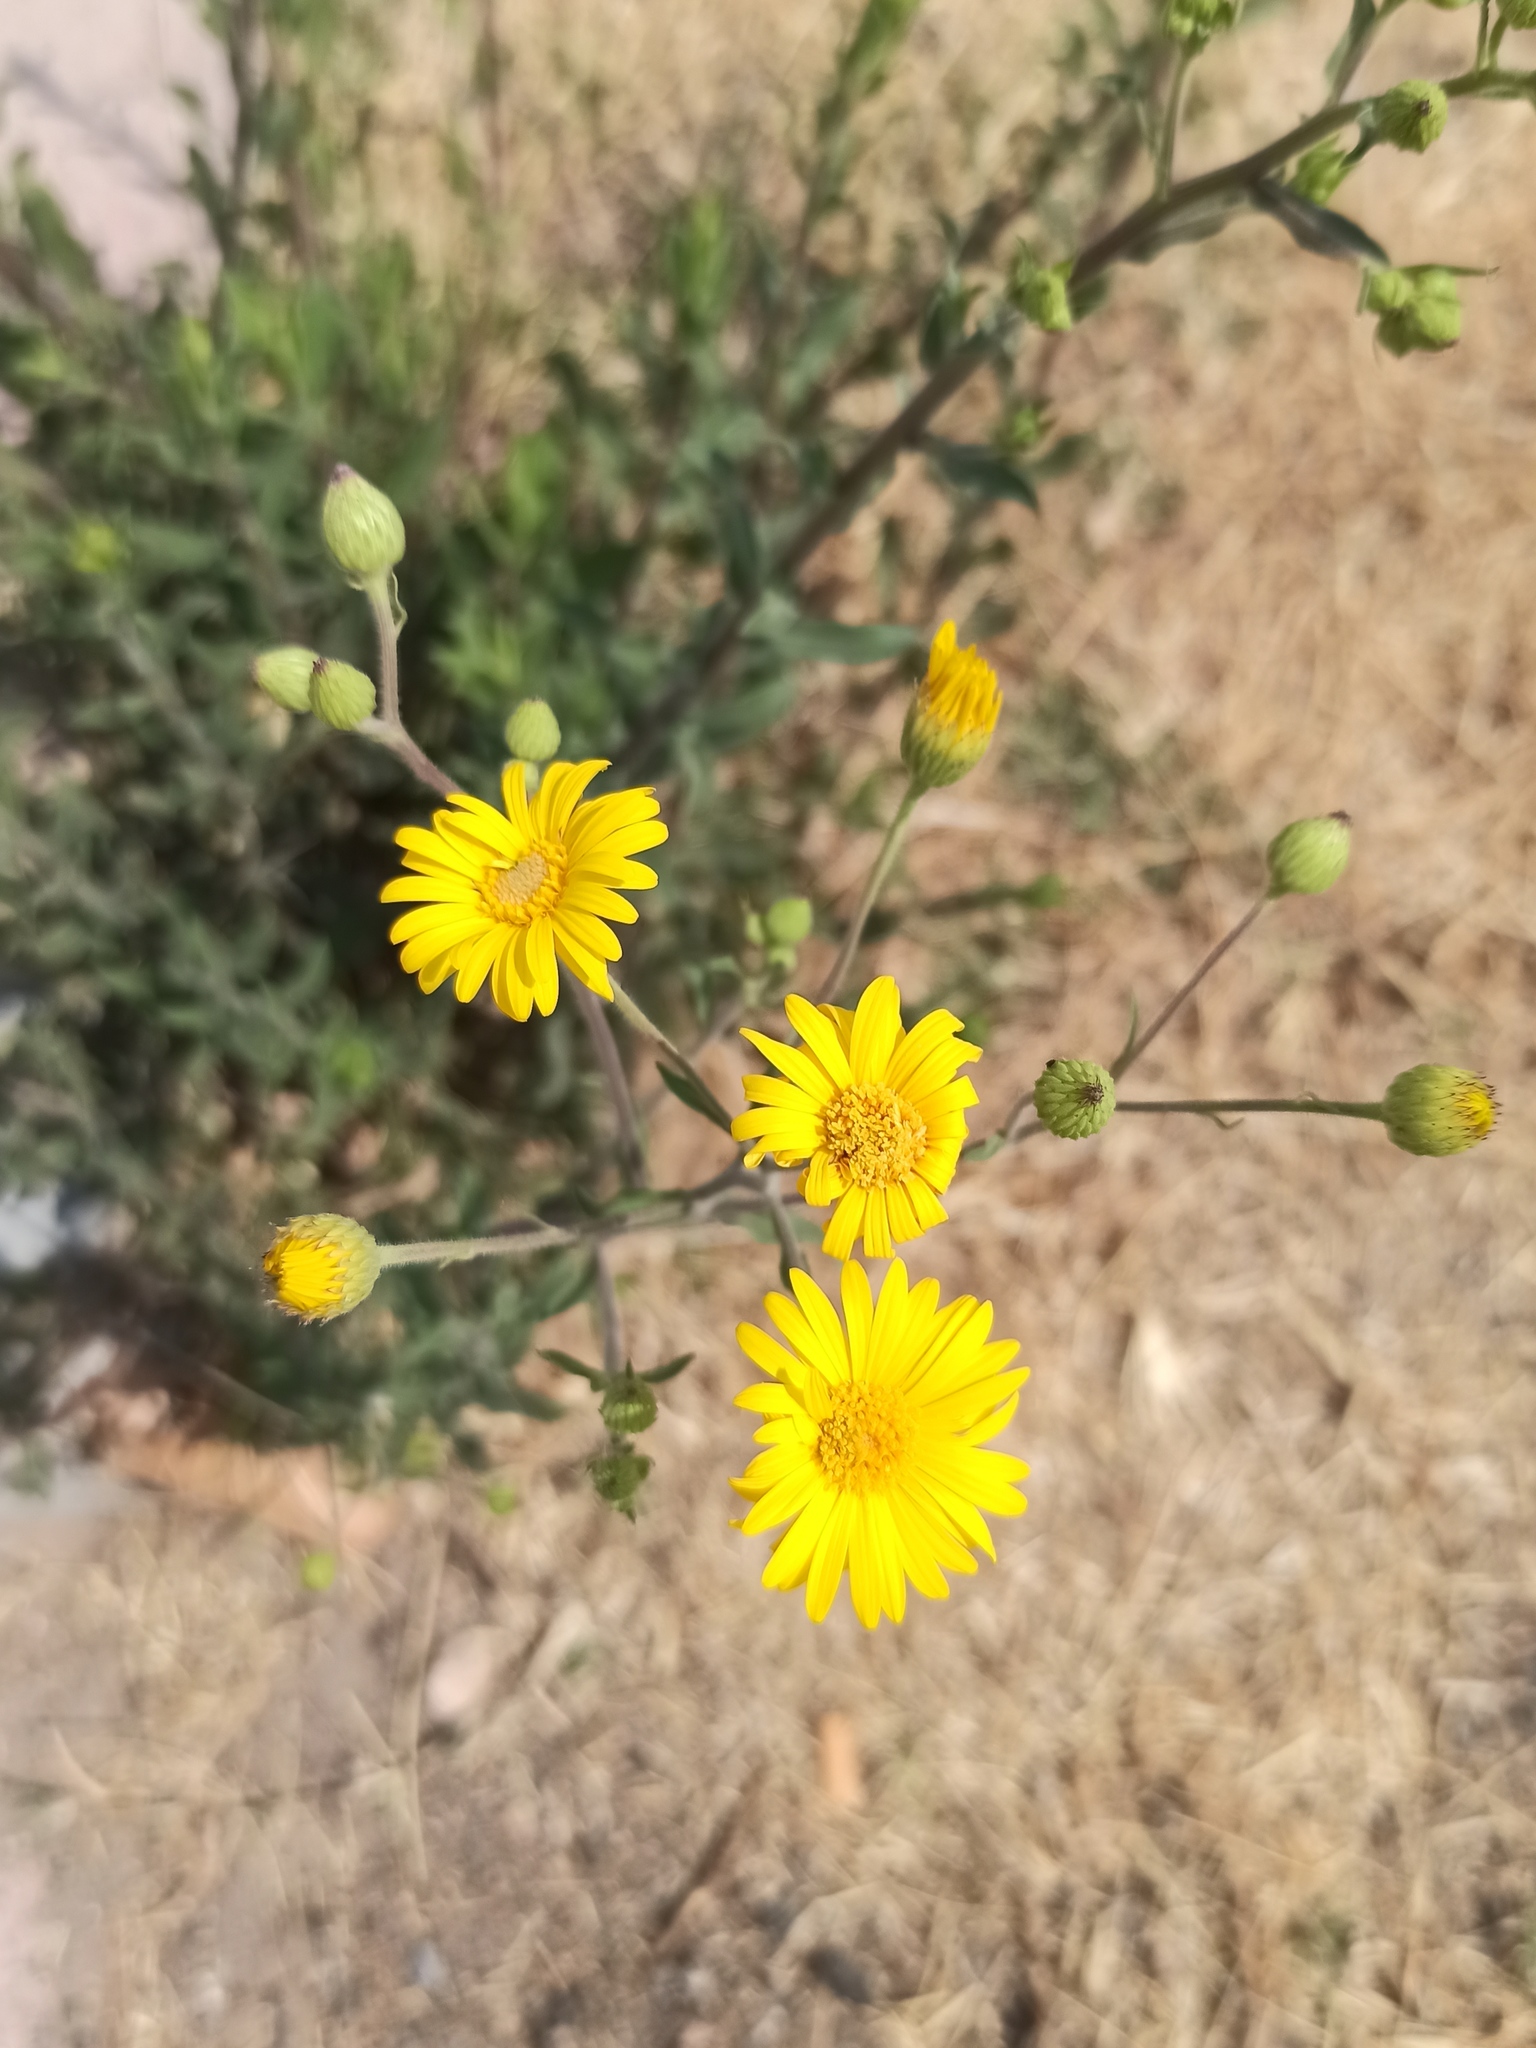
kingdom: Plantae
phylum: Tracheophyta
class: Magnoliopsida
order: Asterales
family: Asteraceae
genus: Heterotheca
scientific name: Heterotheca inuloides
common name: False arnica
